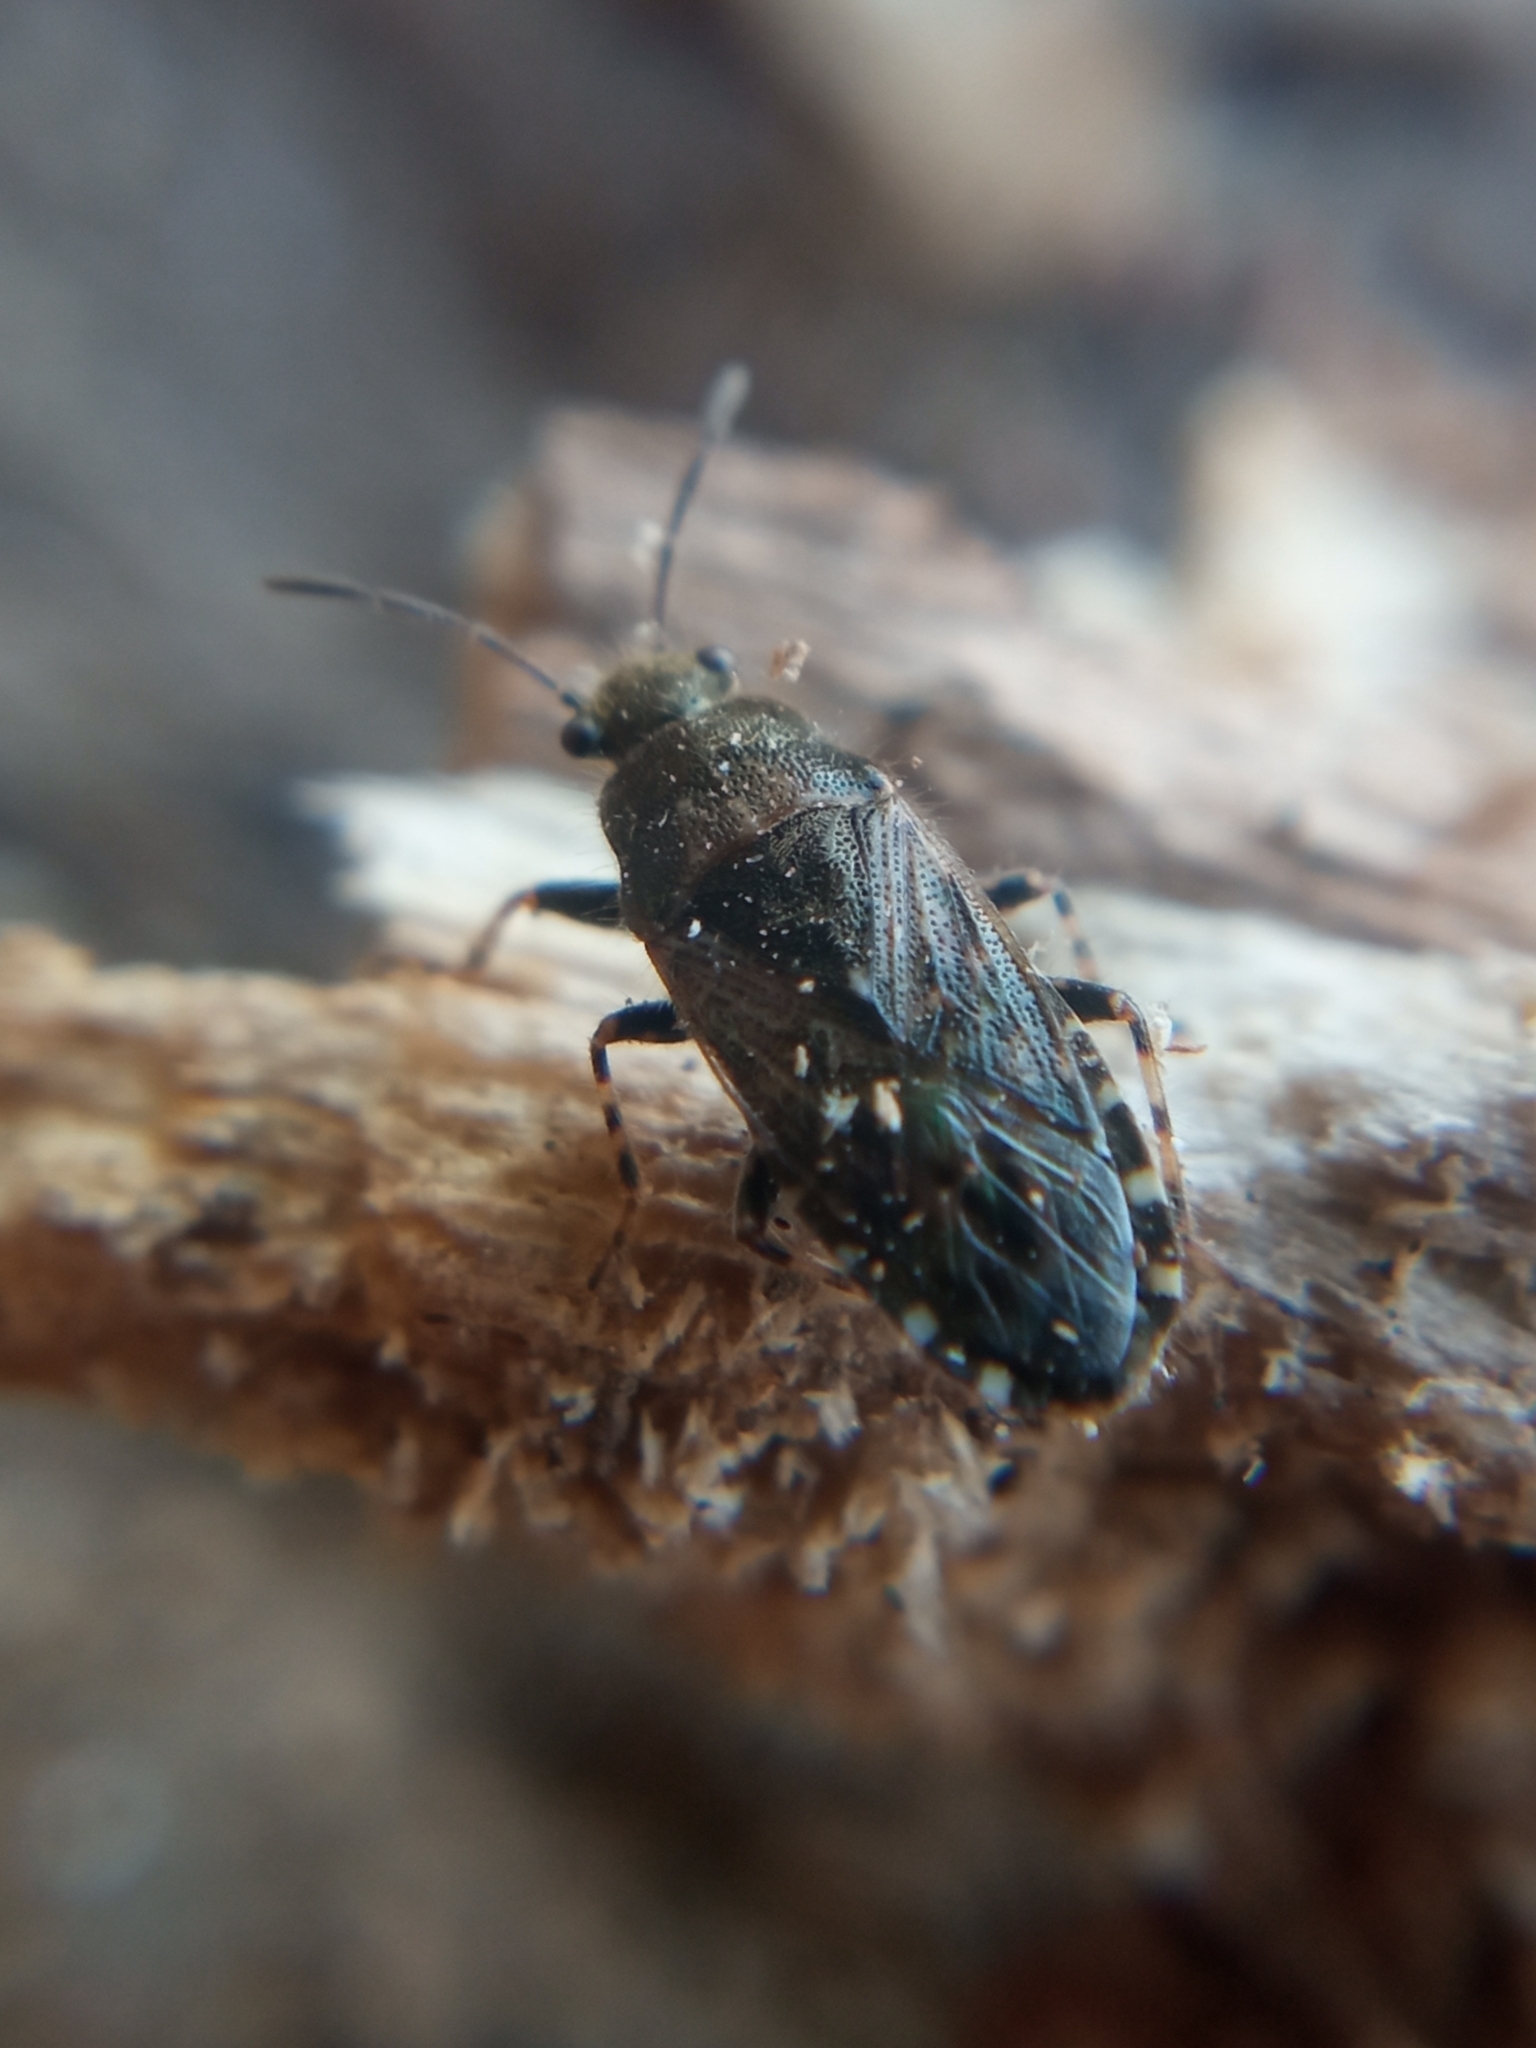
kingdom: Animalia
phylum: Arthropoda
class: Insecta
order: Hemiptera
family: Heterogastridae
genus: Heterogaster
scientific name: Heterogaster urticae
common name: Seed bug
